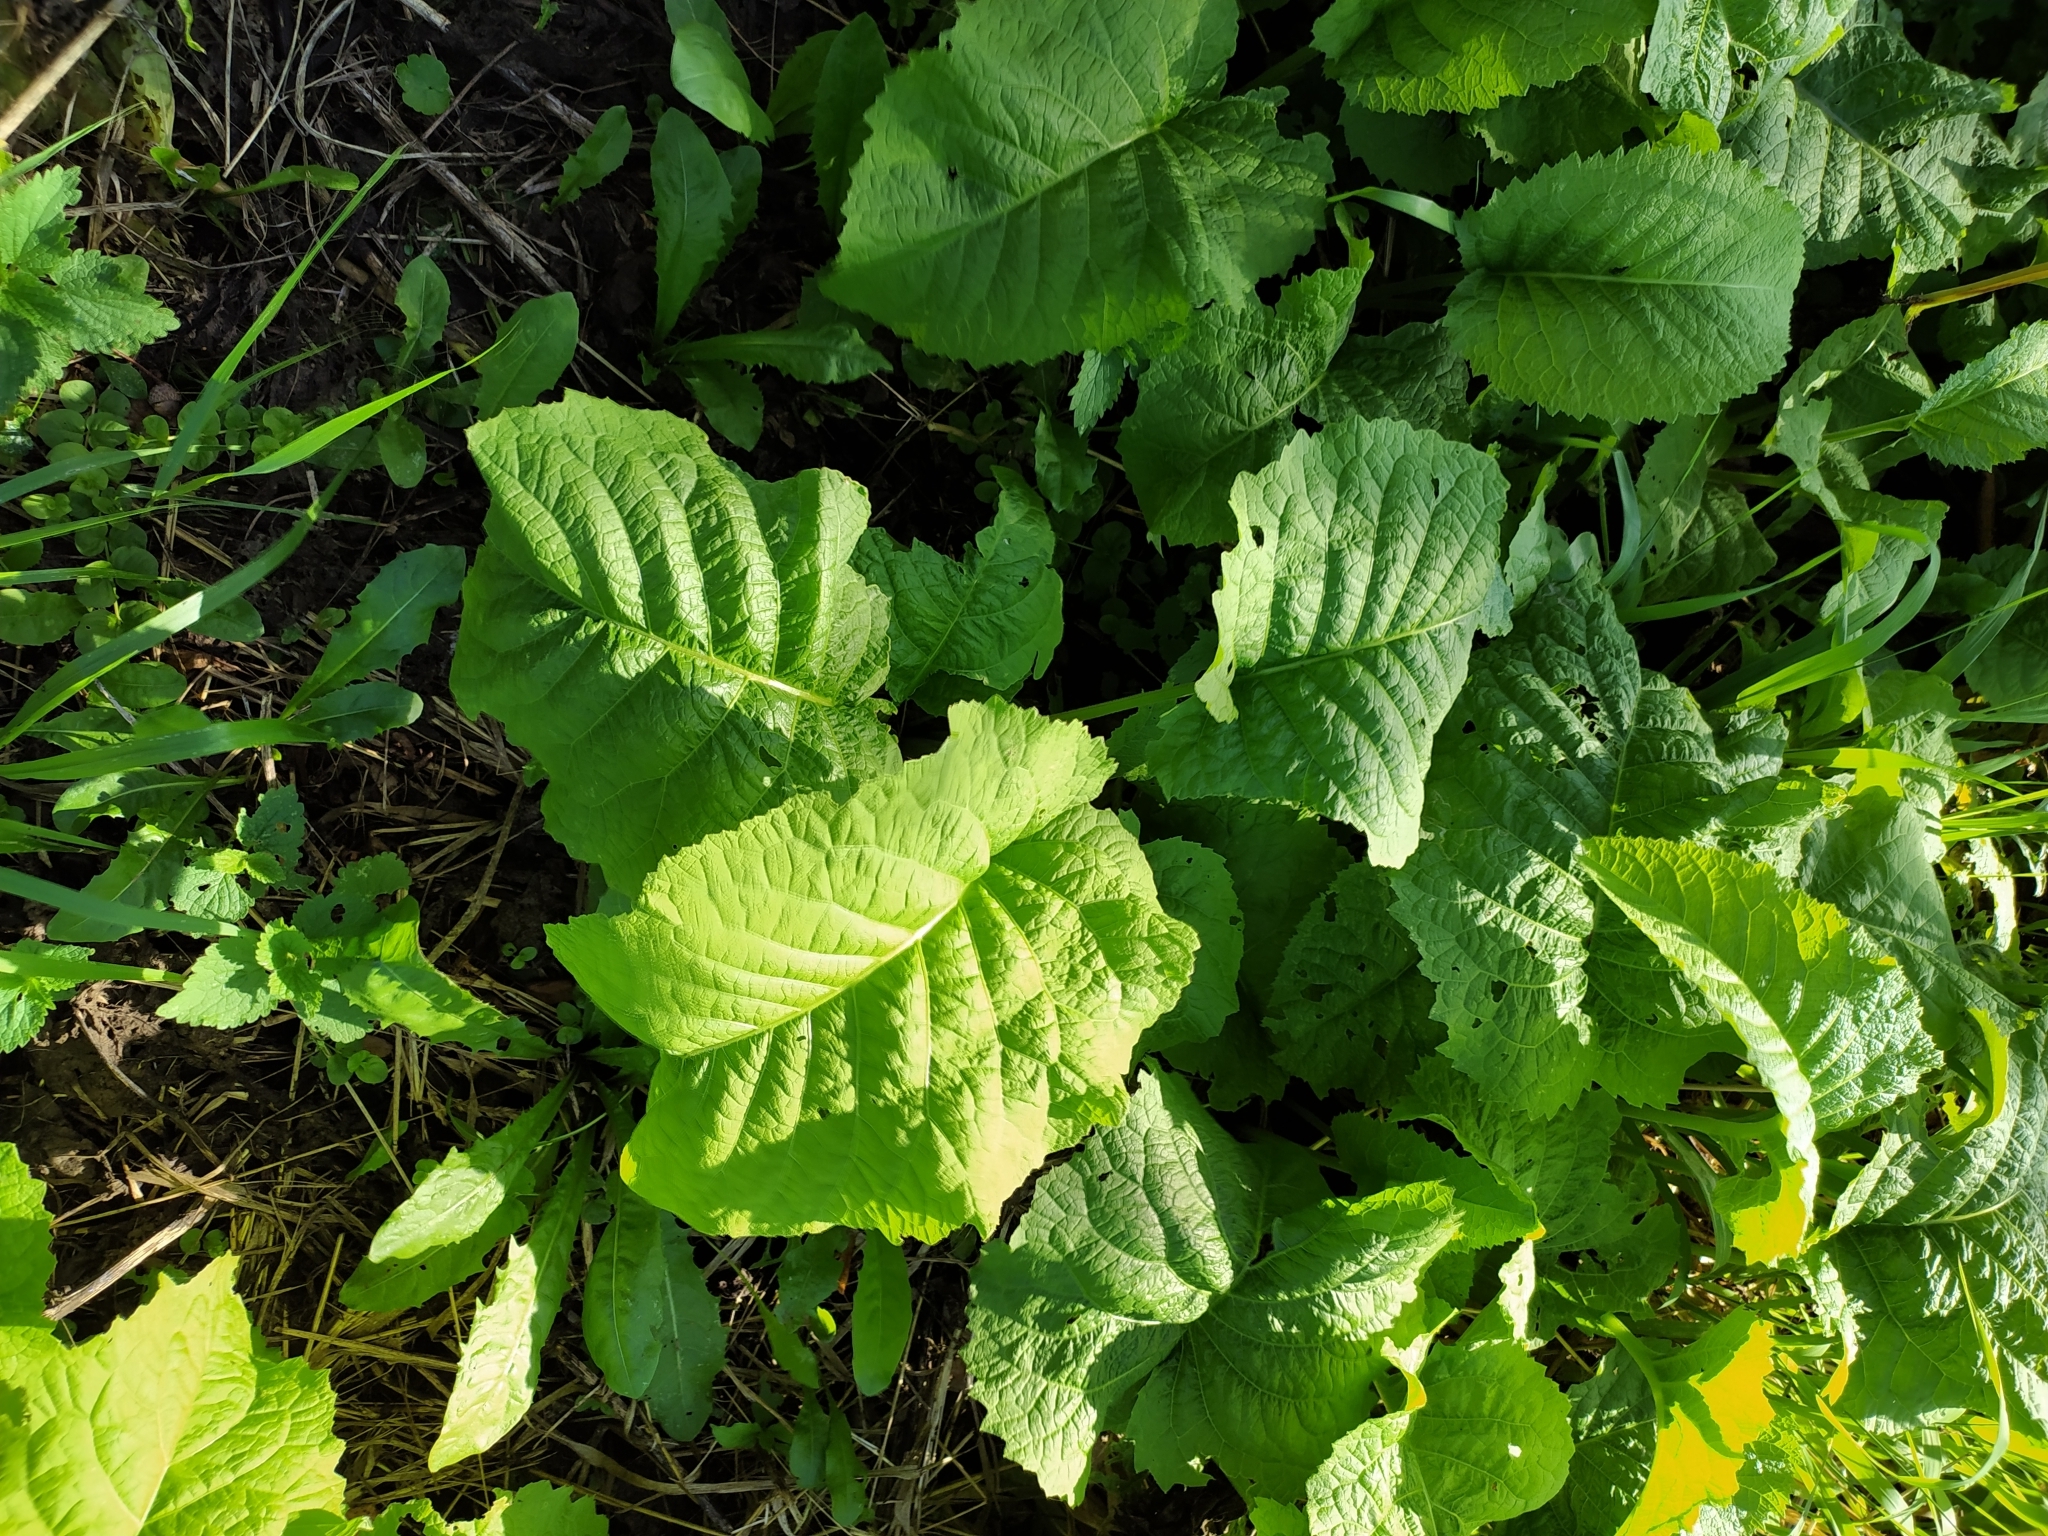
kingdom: Plantae
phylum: Tracheophyta
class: Magnoliopsida
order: Asterales
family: Asteraceae
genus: Telekia
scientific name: Telekia speciosa
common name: Yellow oxeye
